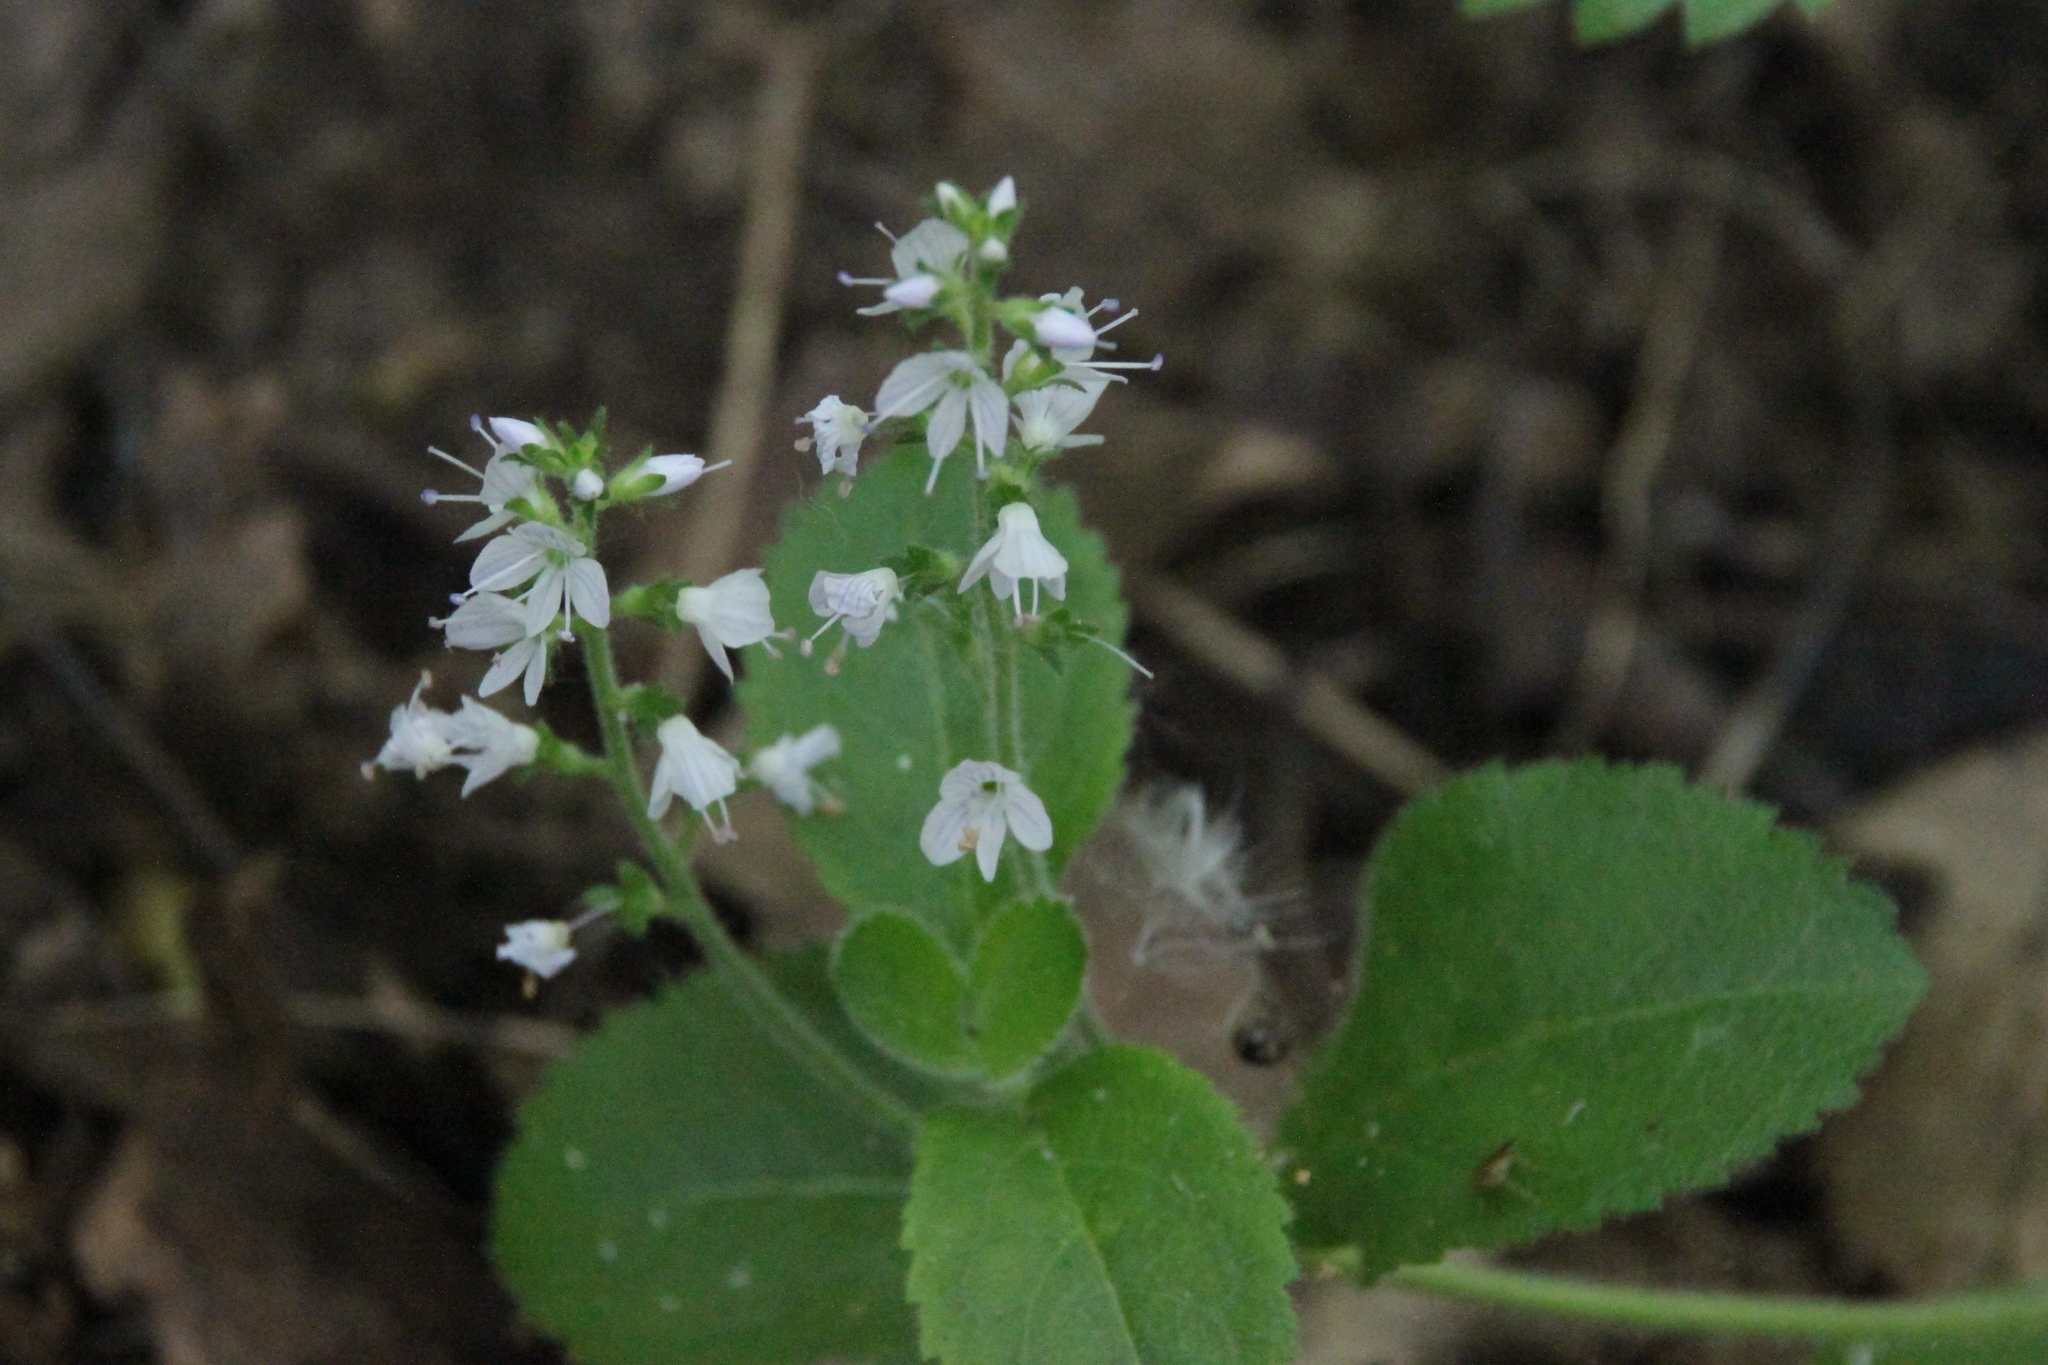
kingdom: Plantae
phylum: Tracheophyta
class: Magnoliopsida
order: Lamiales
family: Plantaginaceae
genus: Veronica
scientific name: Veronica officinalis
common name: Common speedwell
